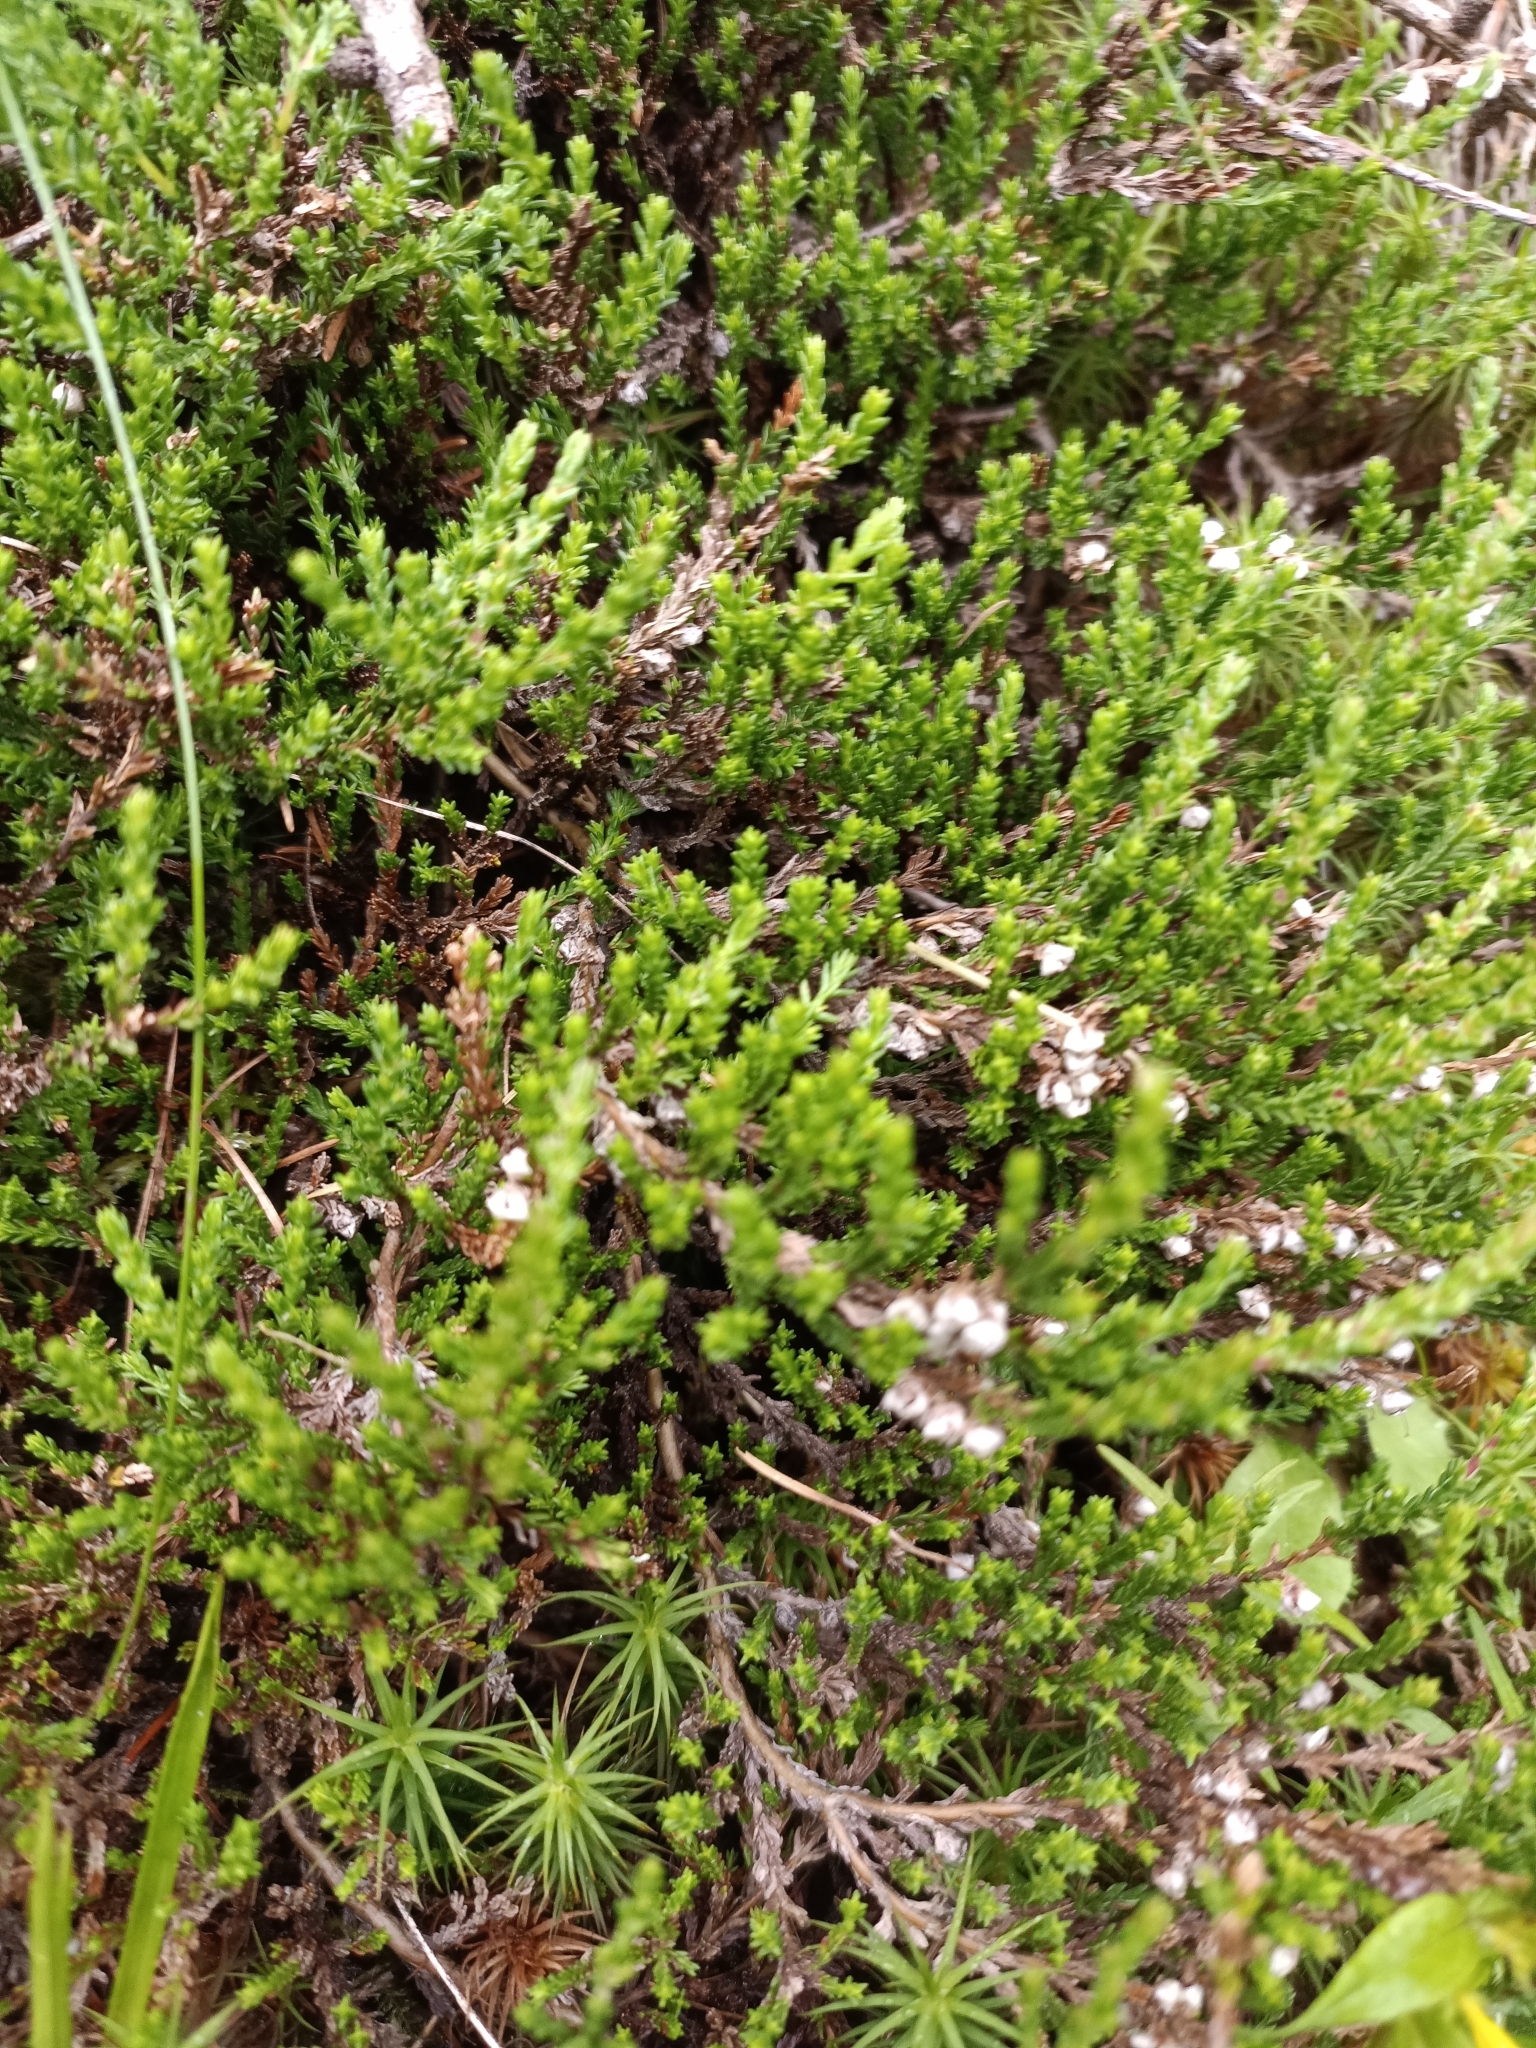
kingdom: Plantae
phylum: Tracheophyta
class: Magnoliopsida
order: Ericales
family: Ericaceae
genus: Calluna
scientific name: Calluna vulgaris
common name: Heather
